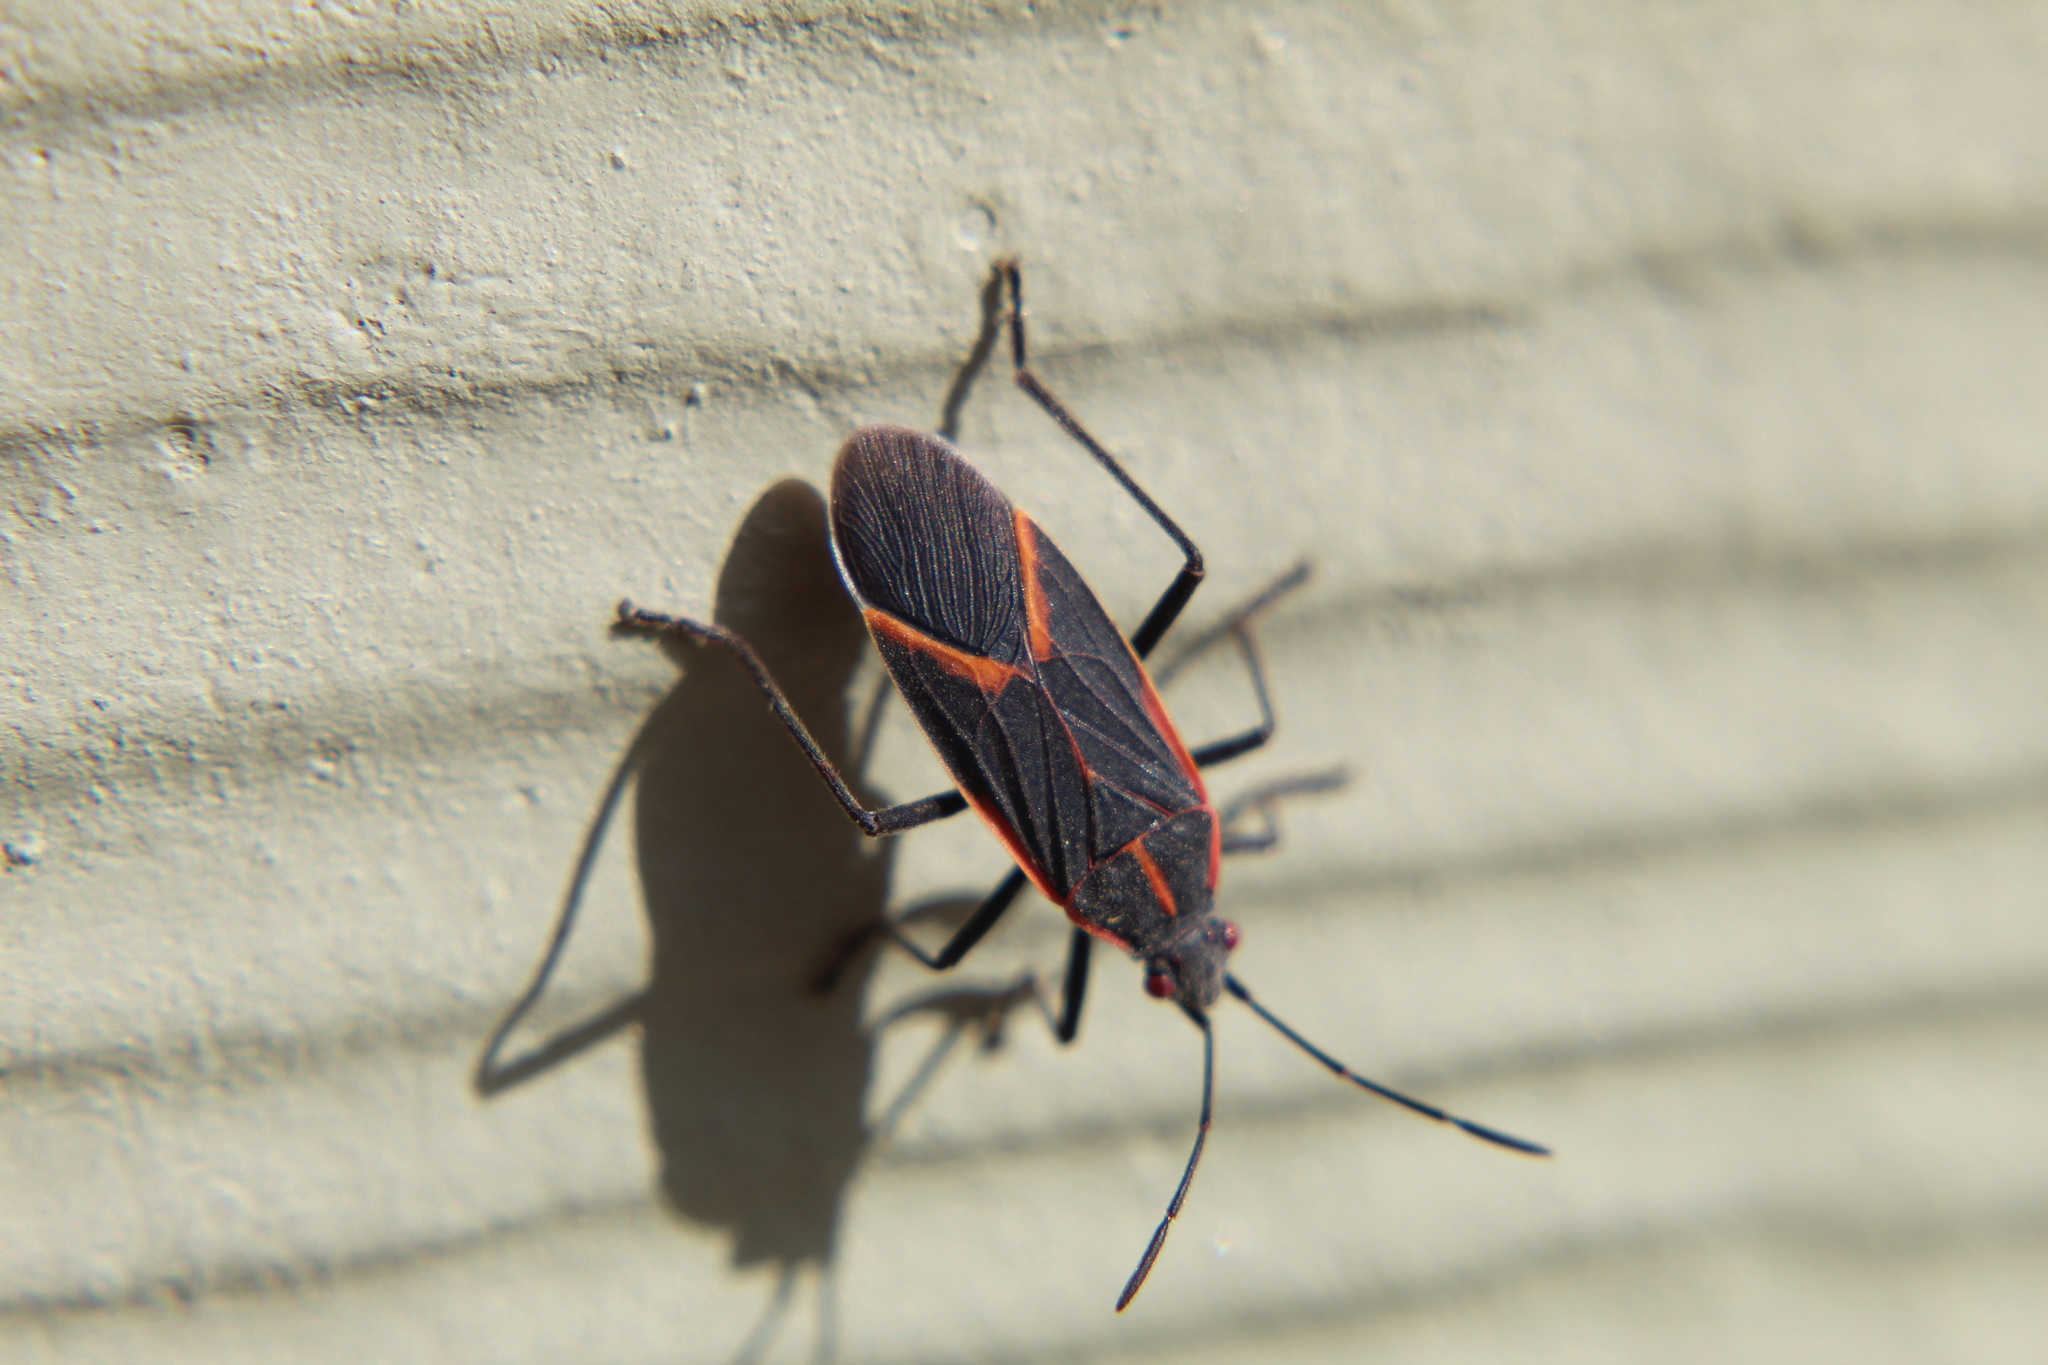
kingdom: Animalia
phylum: Arthropoda
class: Insecta
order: Hemiptera
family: Rhopalidae
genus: Boisea
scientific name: Boisea trivittata
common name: Boxelder bug
